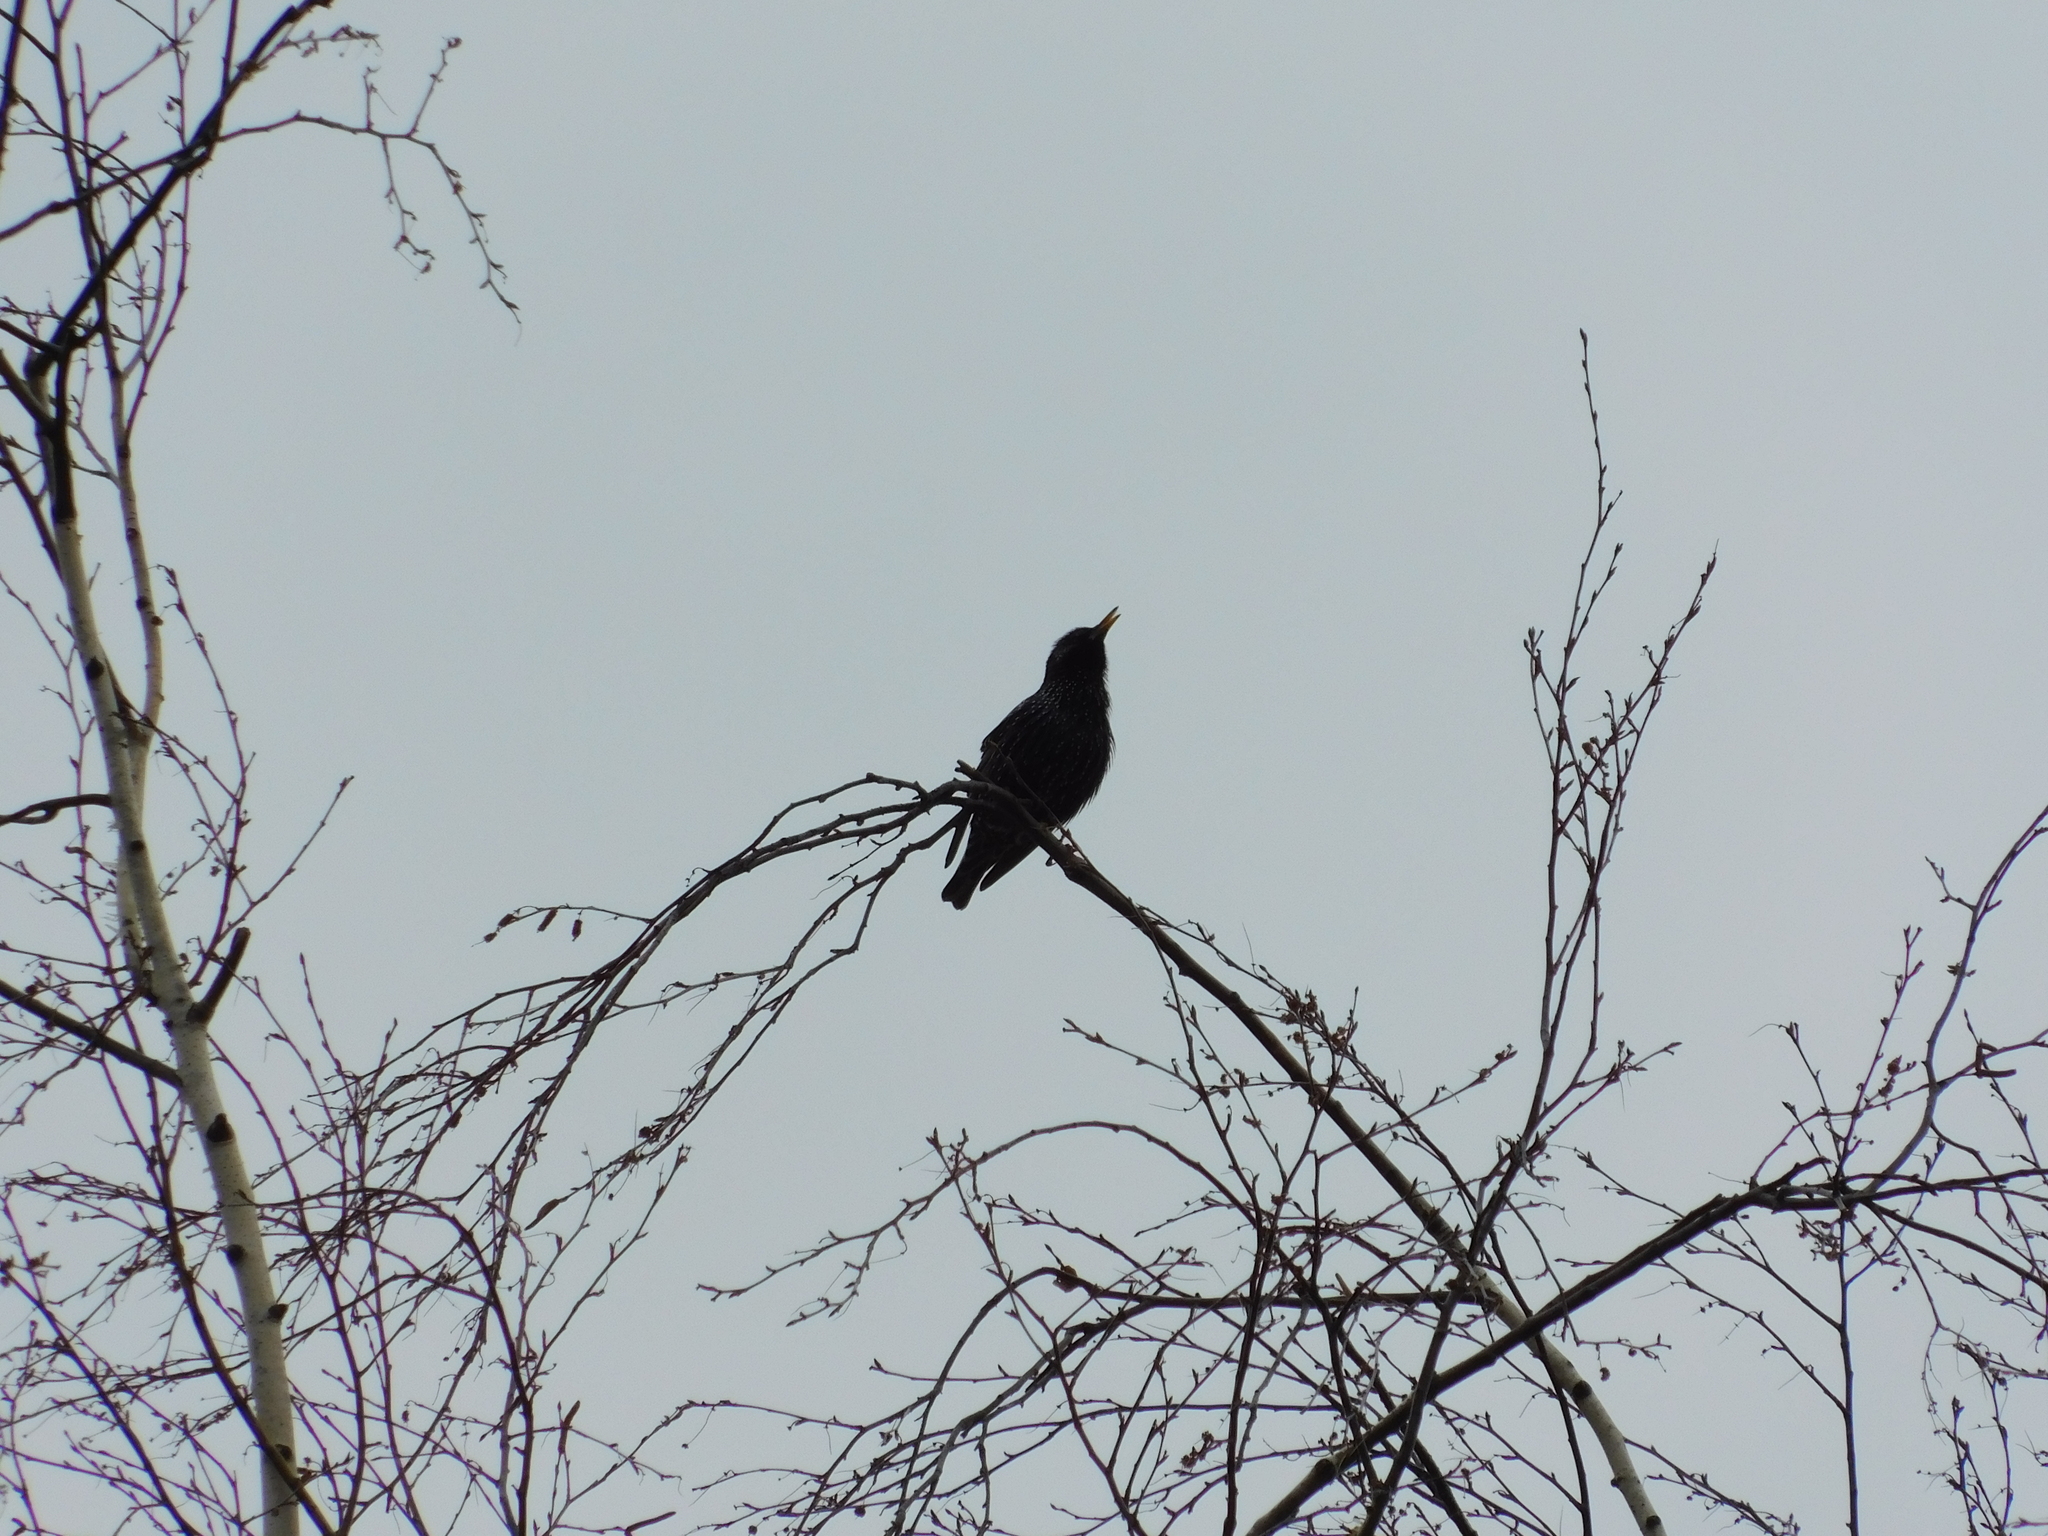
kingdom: Animalia
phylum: Chordata
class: Aves
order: Passeriformes
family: Sturnidae
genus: Sturnus
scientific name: Sturnus vulgaris
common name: Common starling
